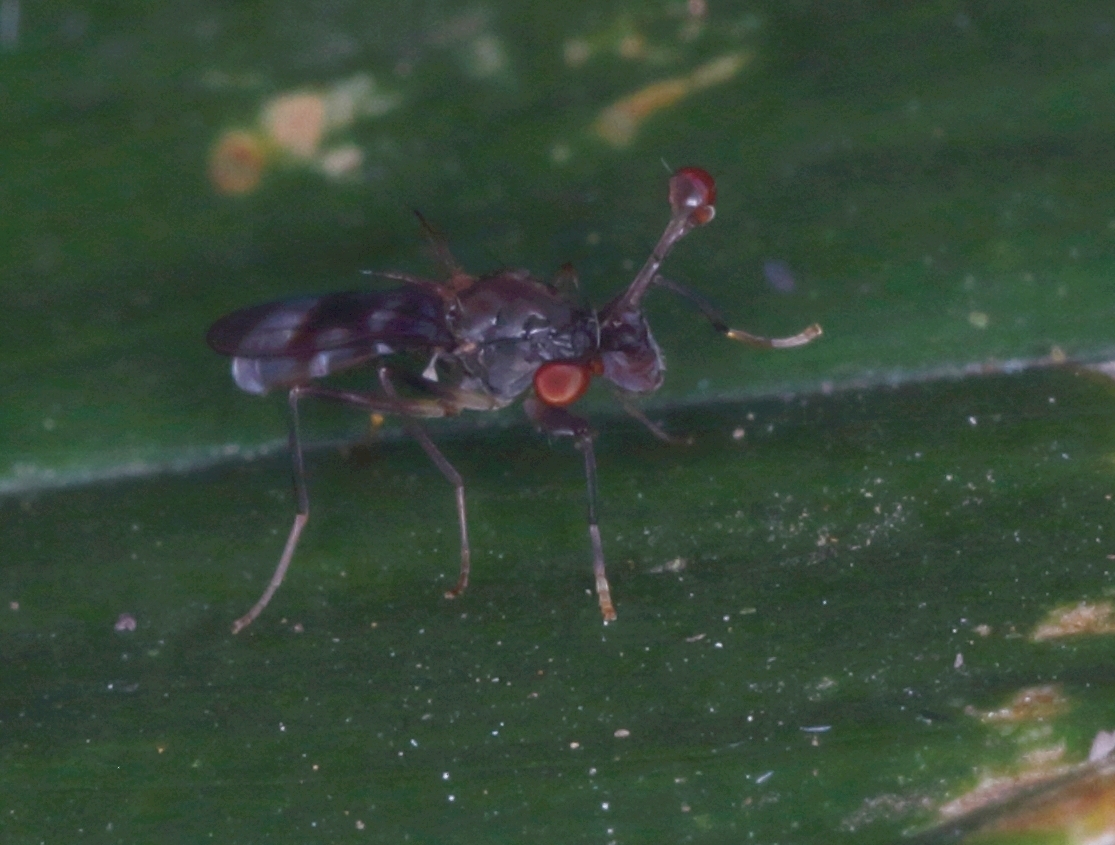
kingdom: Animalia
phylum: Arthropoda
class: Insecta
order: Diptera
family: Diopsidae
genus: Diasemopsis
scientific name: Diasemopsis obstans
